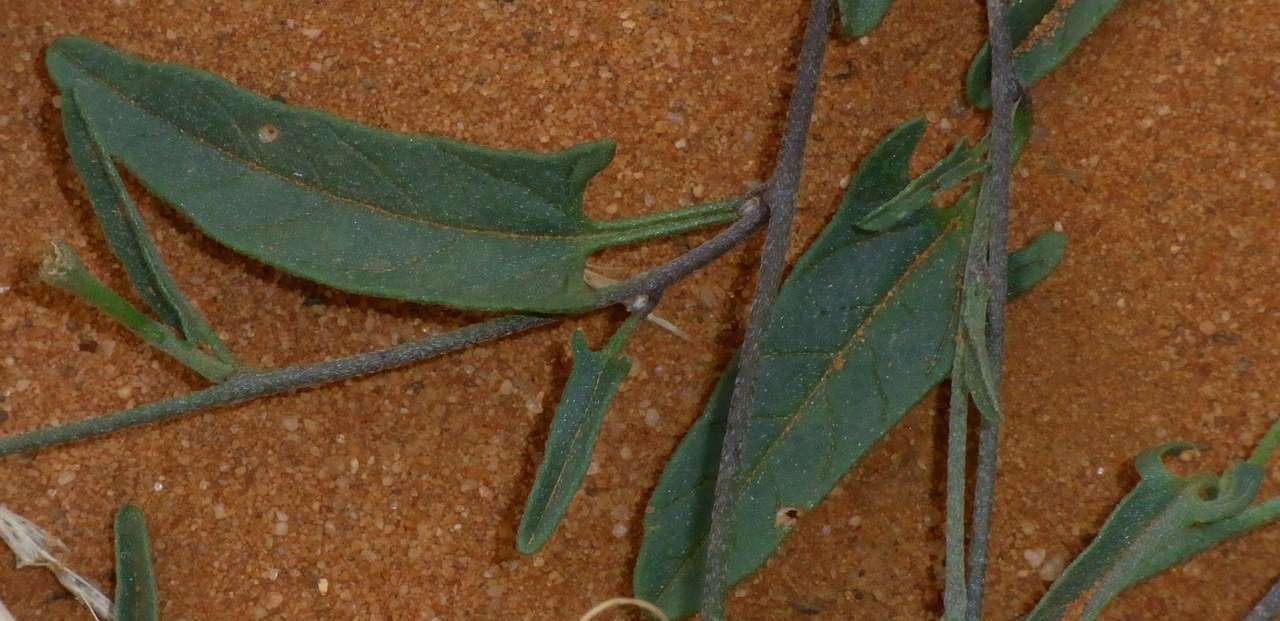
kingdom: Plantae
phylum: Tracheophyta
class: Magnoliopsida
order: Solanales
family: Convolvulaceae
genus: Convolvulus
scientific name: Convolvulus remotus
